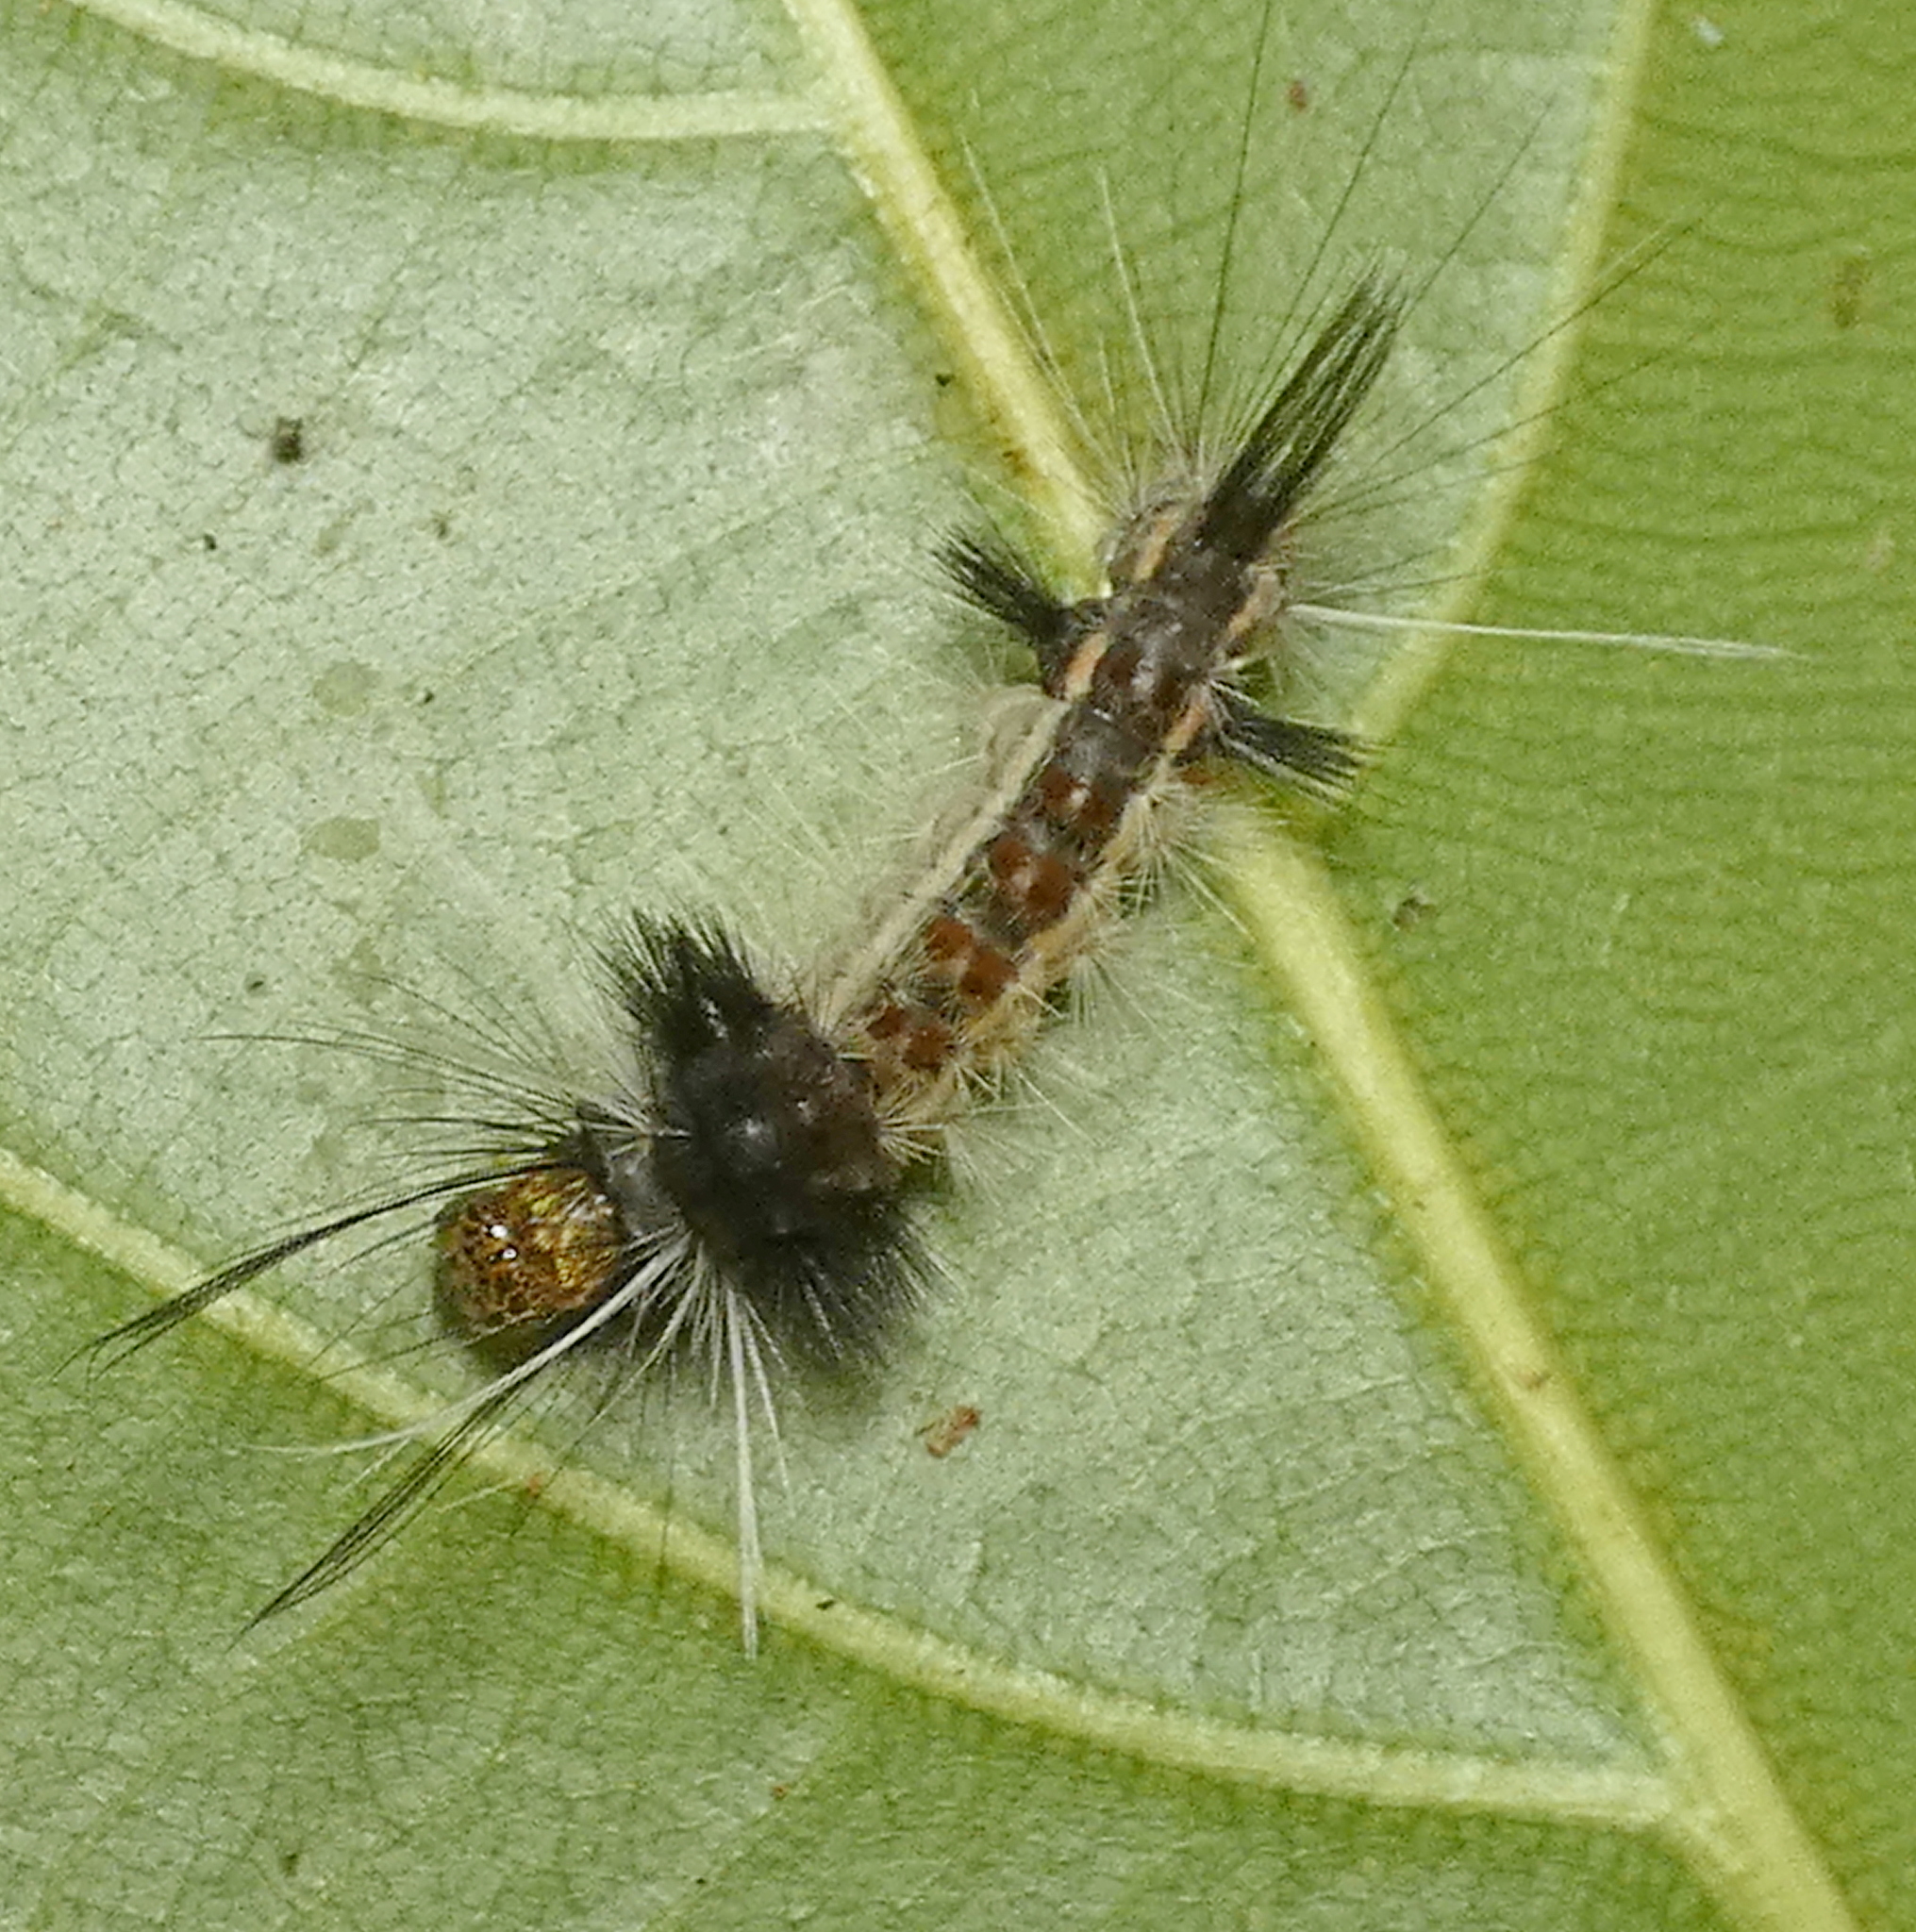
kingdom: Animalia
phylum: Arthropoda
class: Insecta
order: Lepidoptera
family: Erebidae
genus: Carales
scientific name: Carales astur
